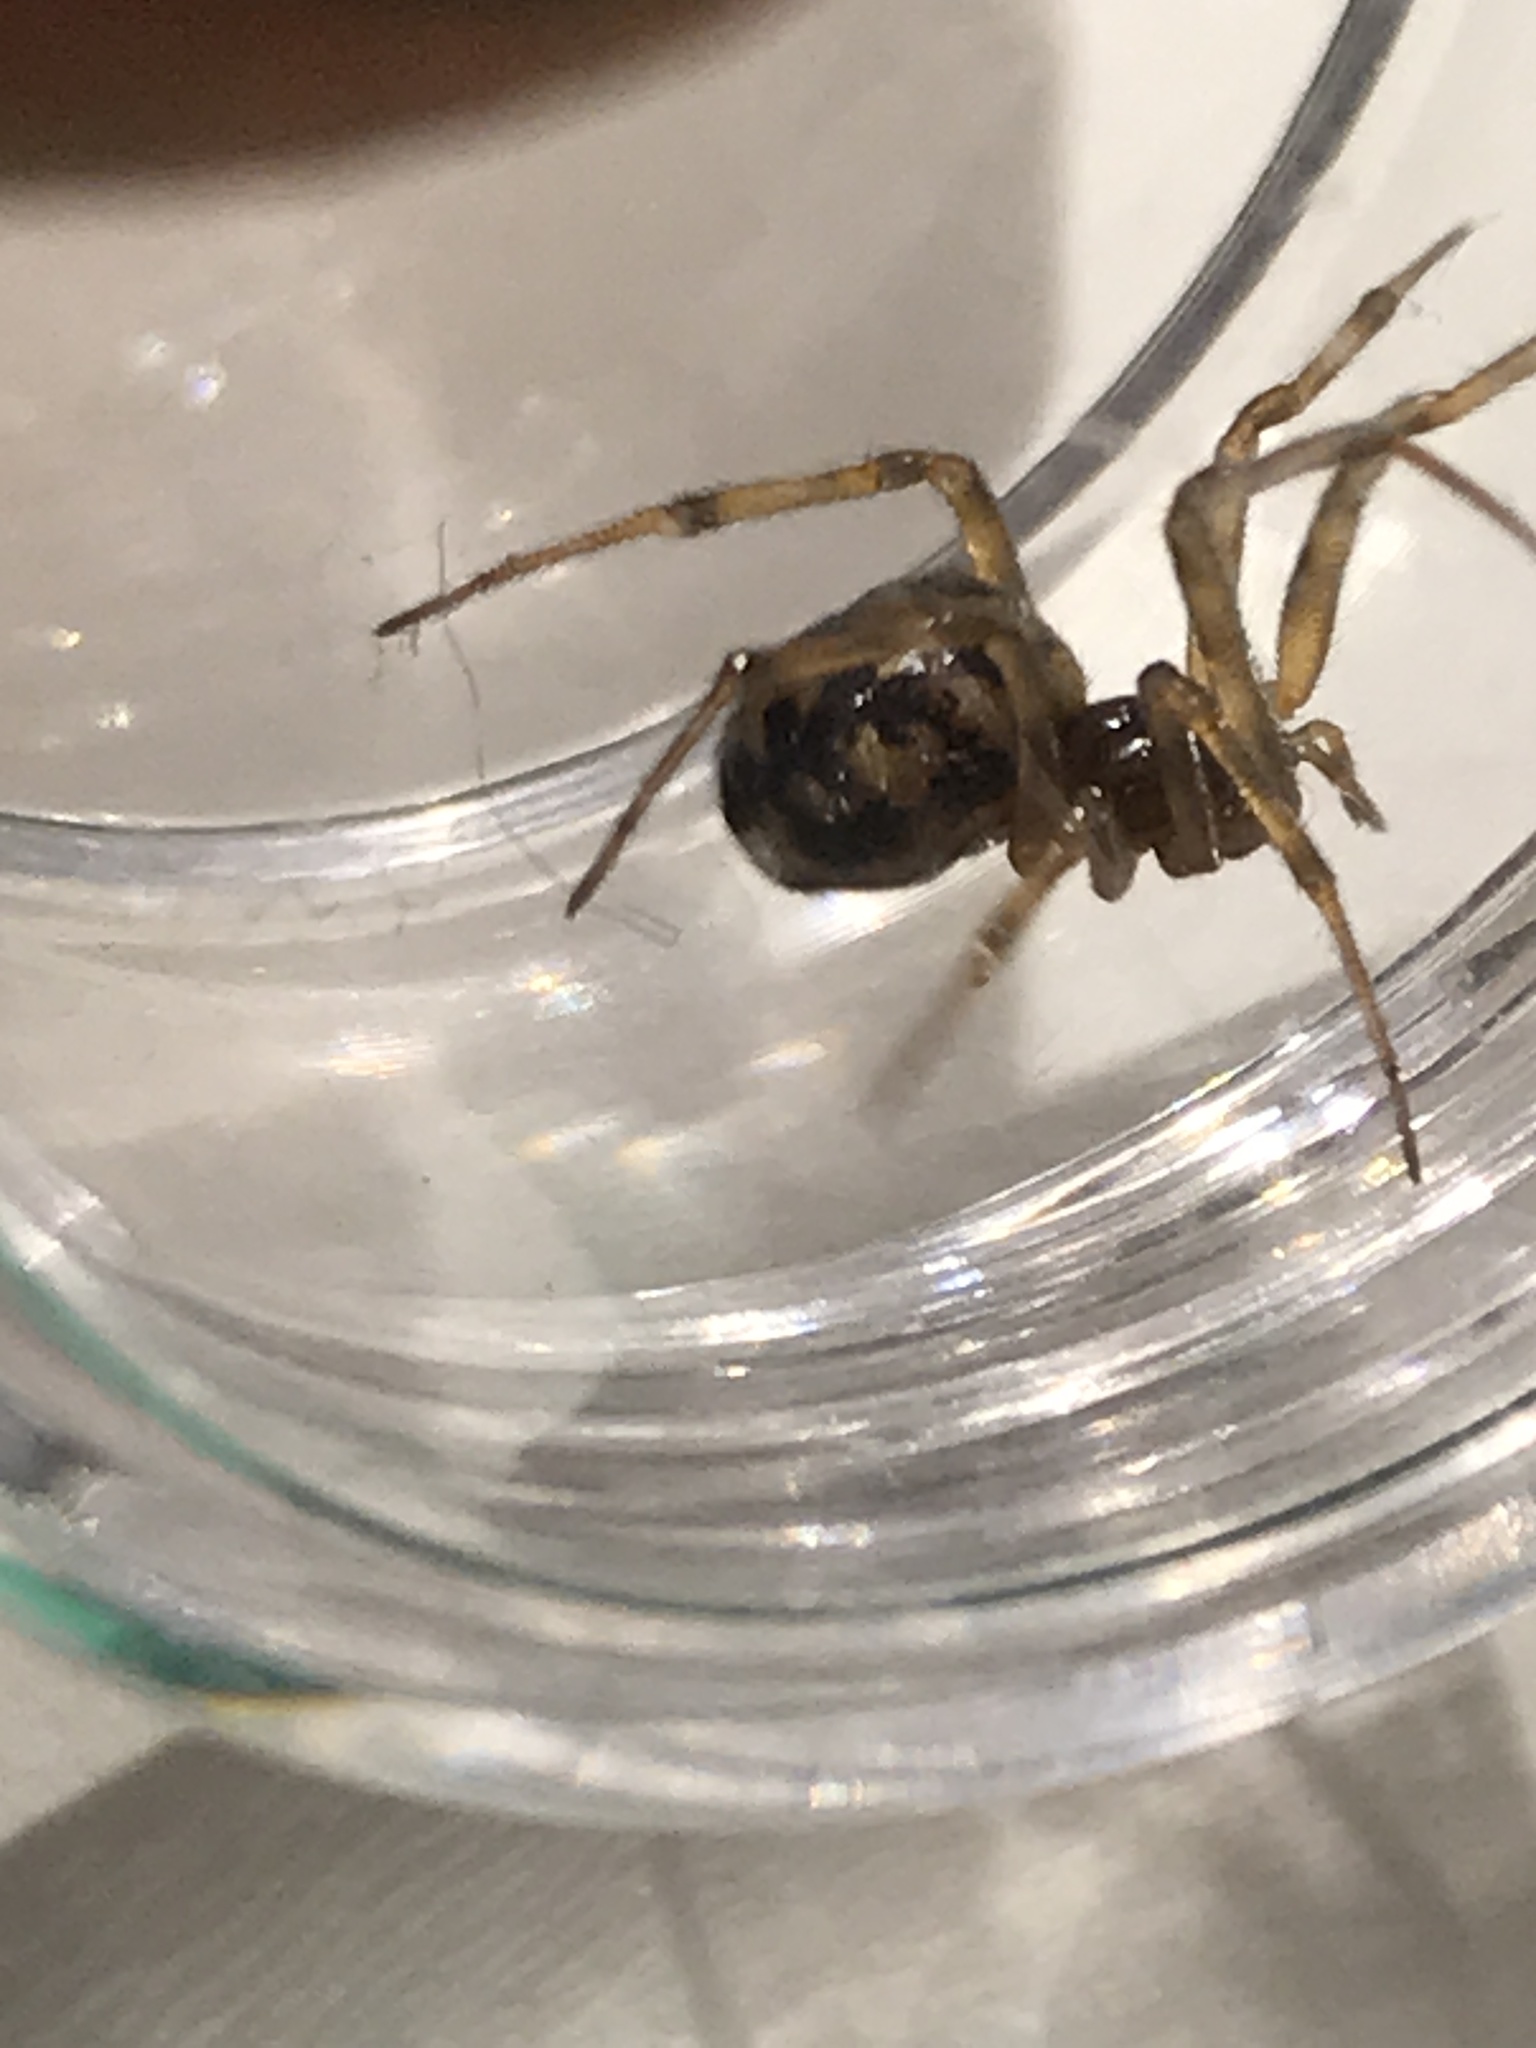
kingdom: Animalia
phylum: Arthropoda
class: Arachnida
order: Araneae
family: Theridiidae
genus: Steatoda
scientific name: Steatoda triangulosa
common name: Triangulate bud spider
